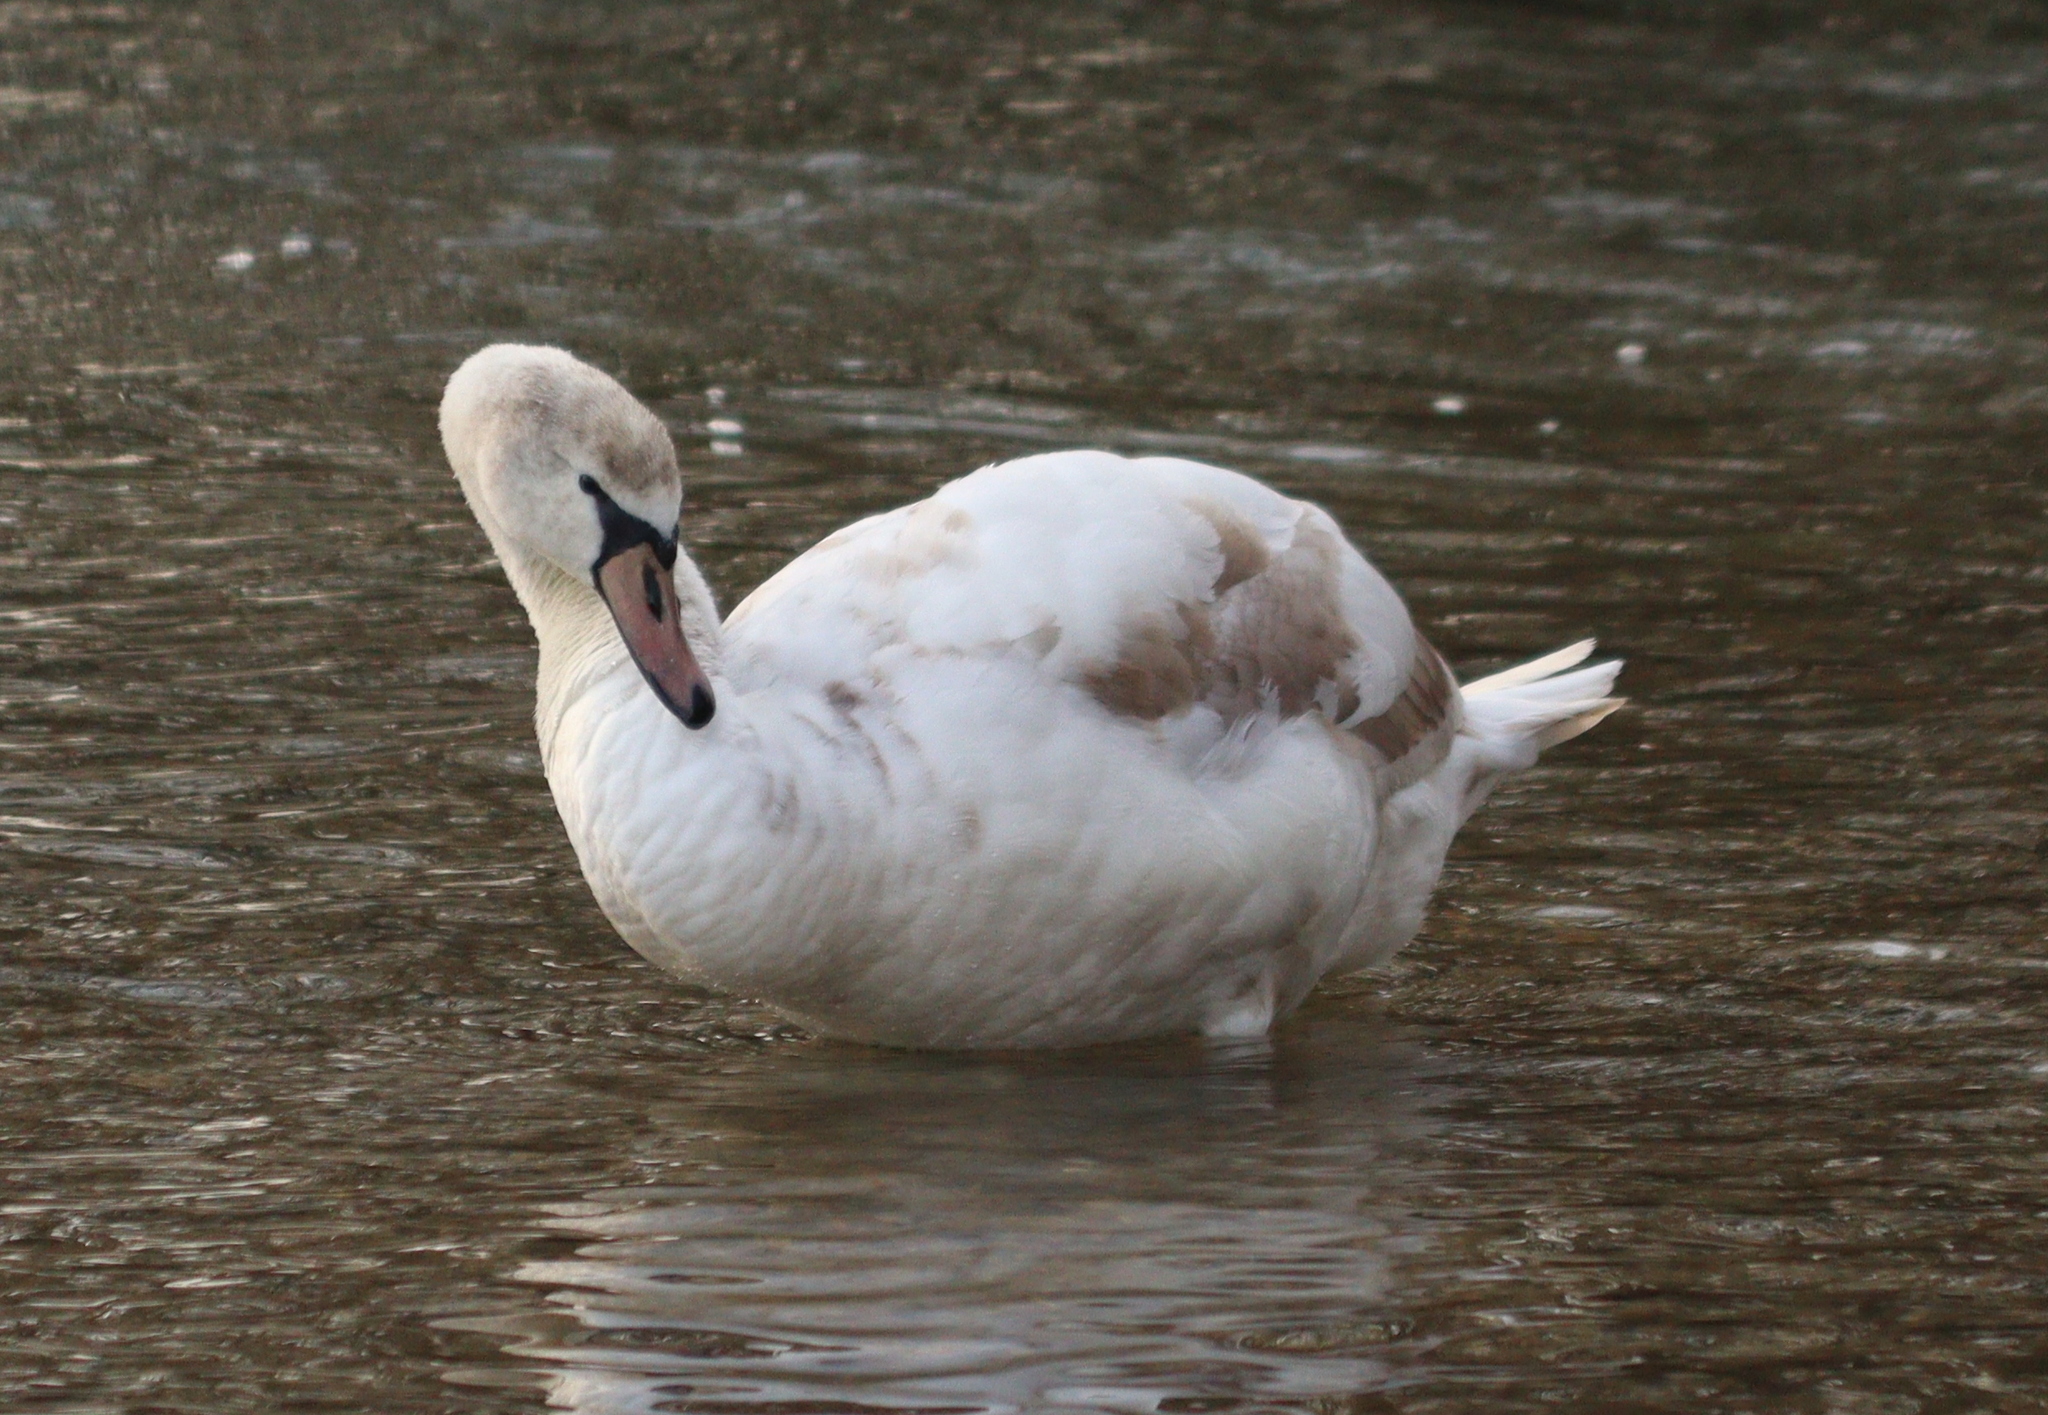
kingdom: Animalia
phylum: Chordata
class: Aves
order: Anseriformes
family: Anatidae
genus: Cygnus
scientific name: Cygnus olor
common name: Mute swan
